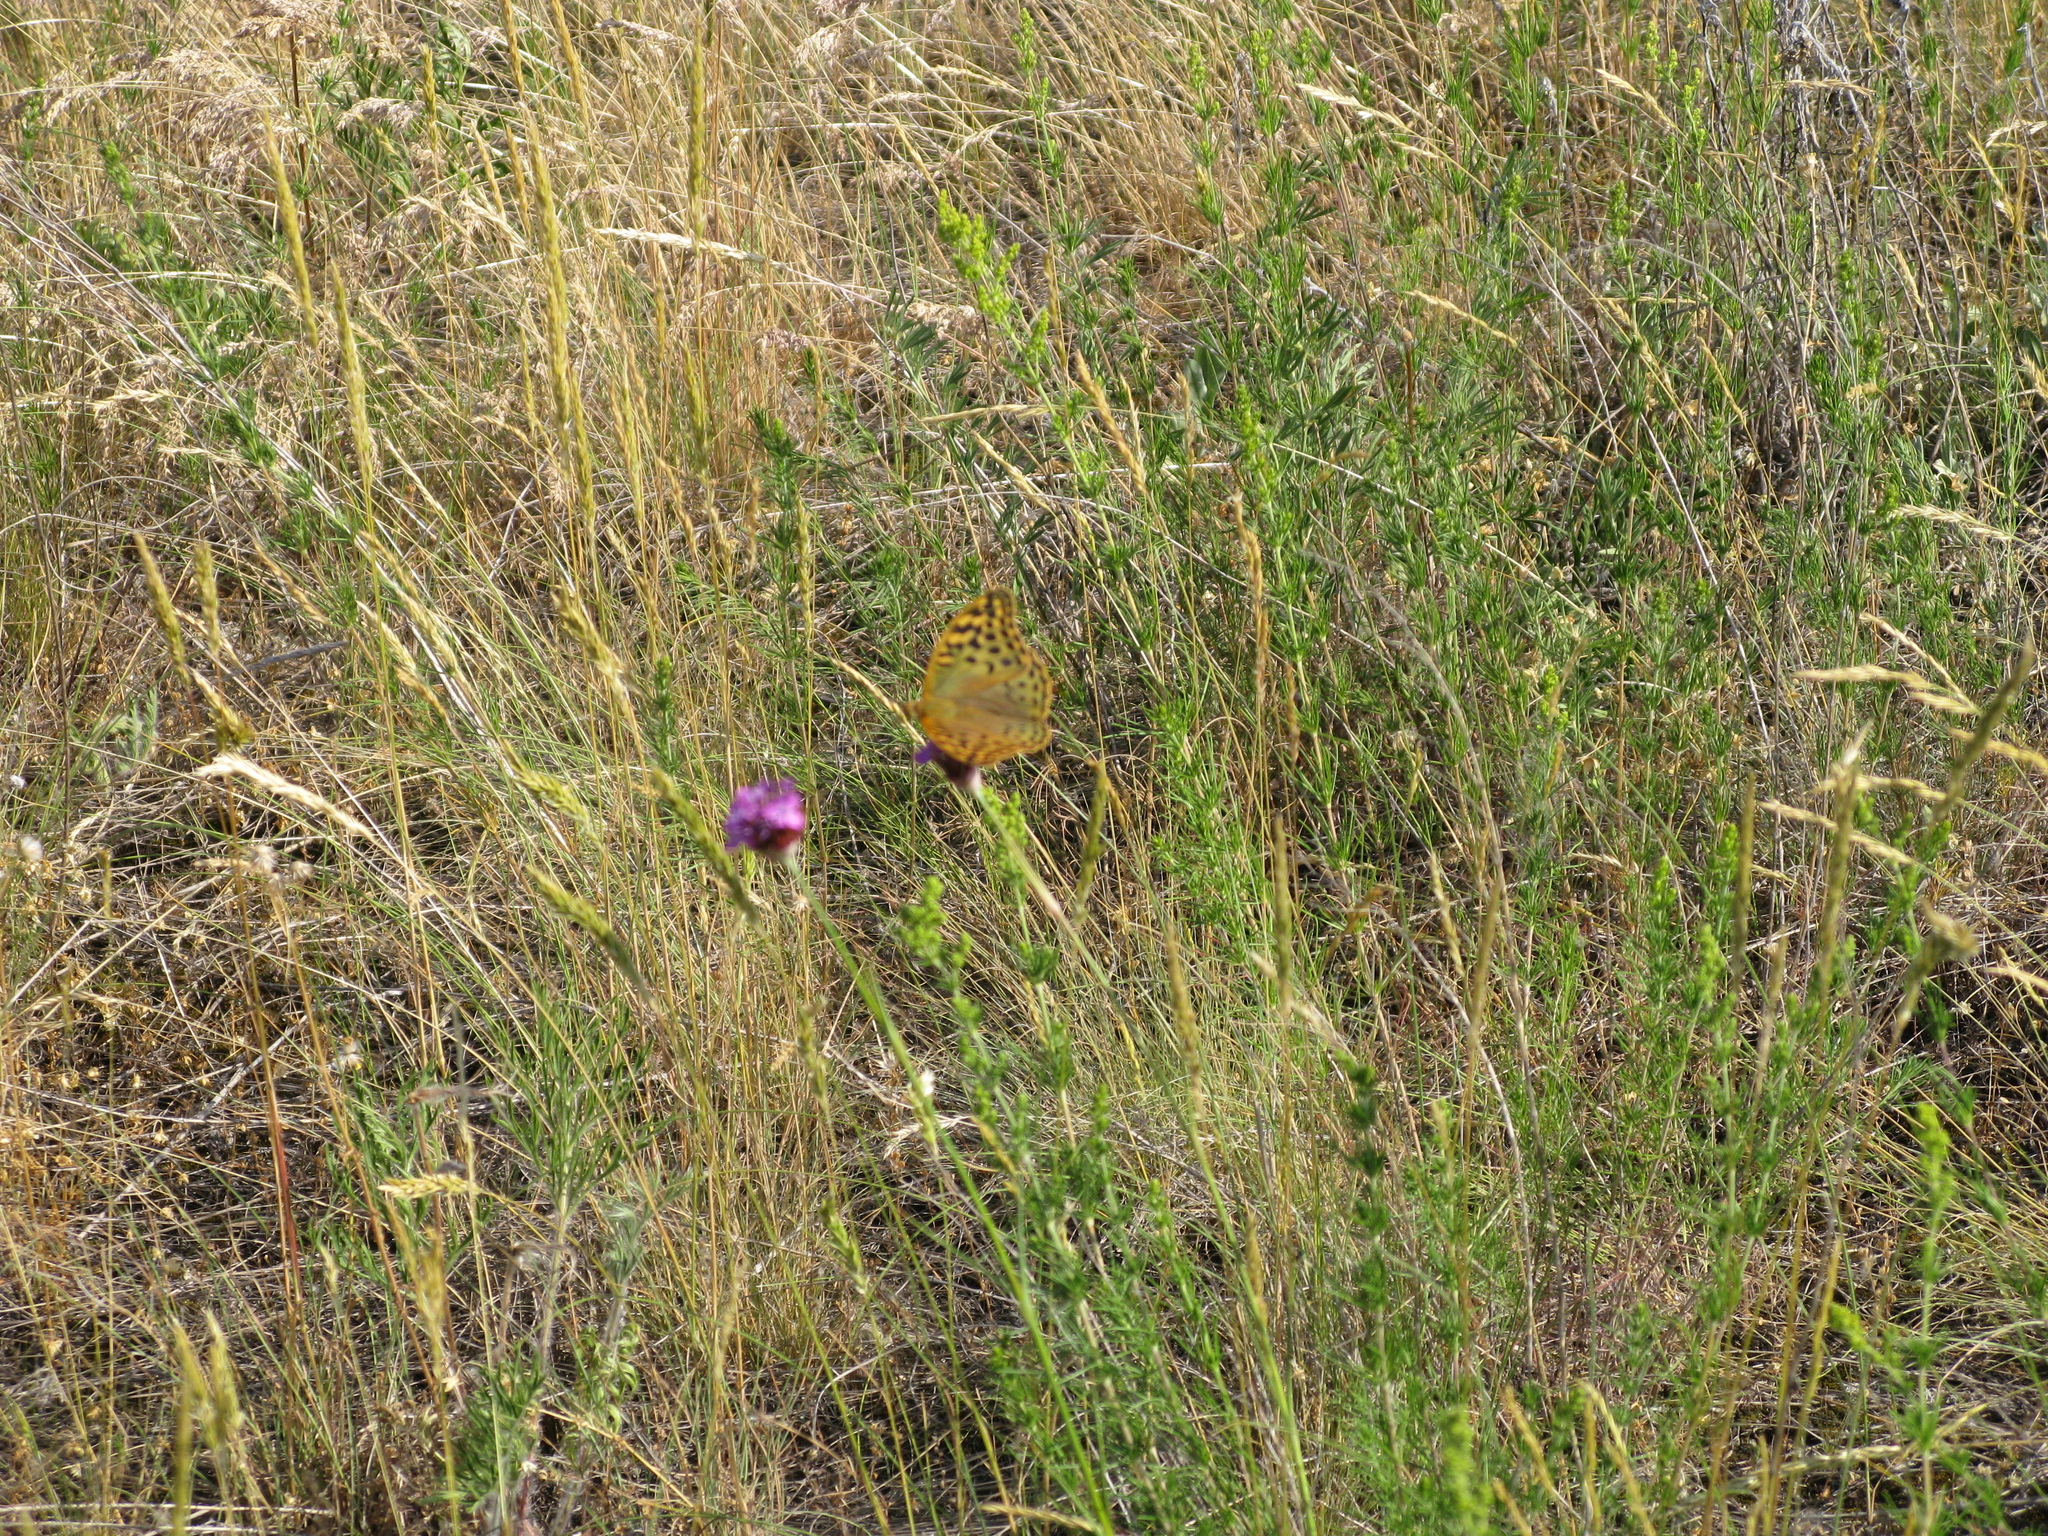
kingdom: Animalia
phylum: Arthropoda
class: Insecta
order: Lepidoptera
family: Nymphalidae
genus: Damora
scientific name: Damora pandora
